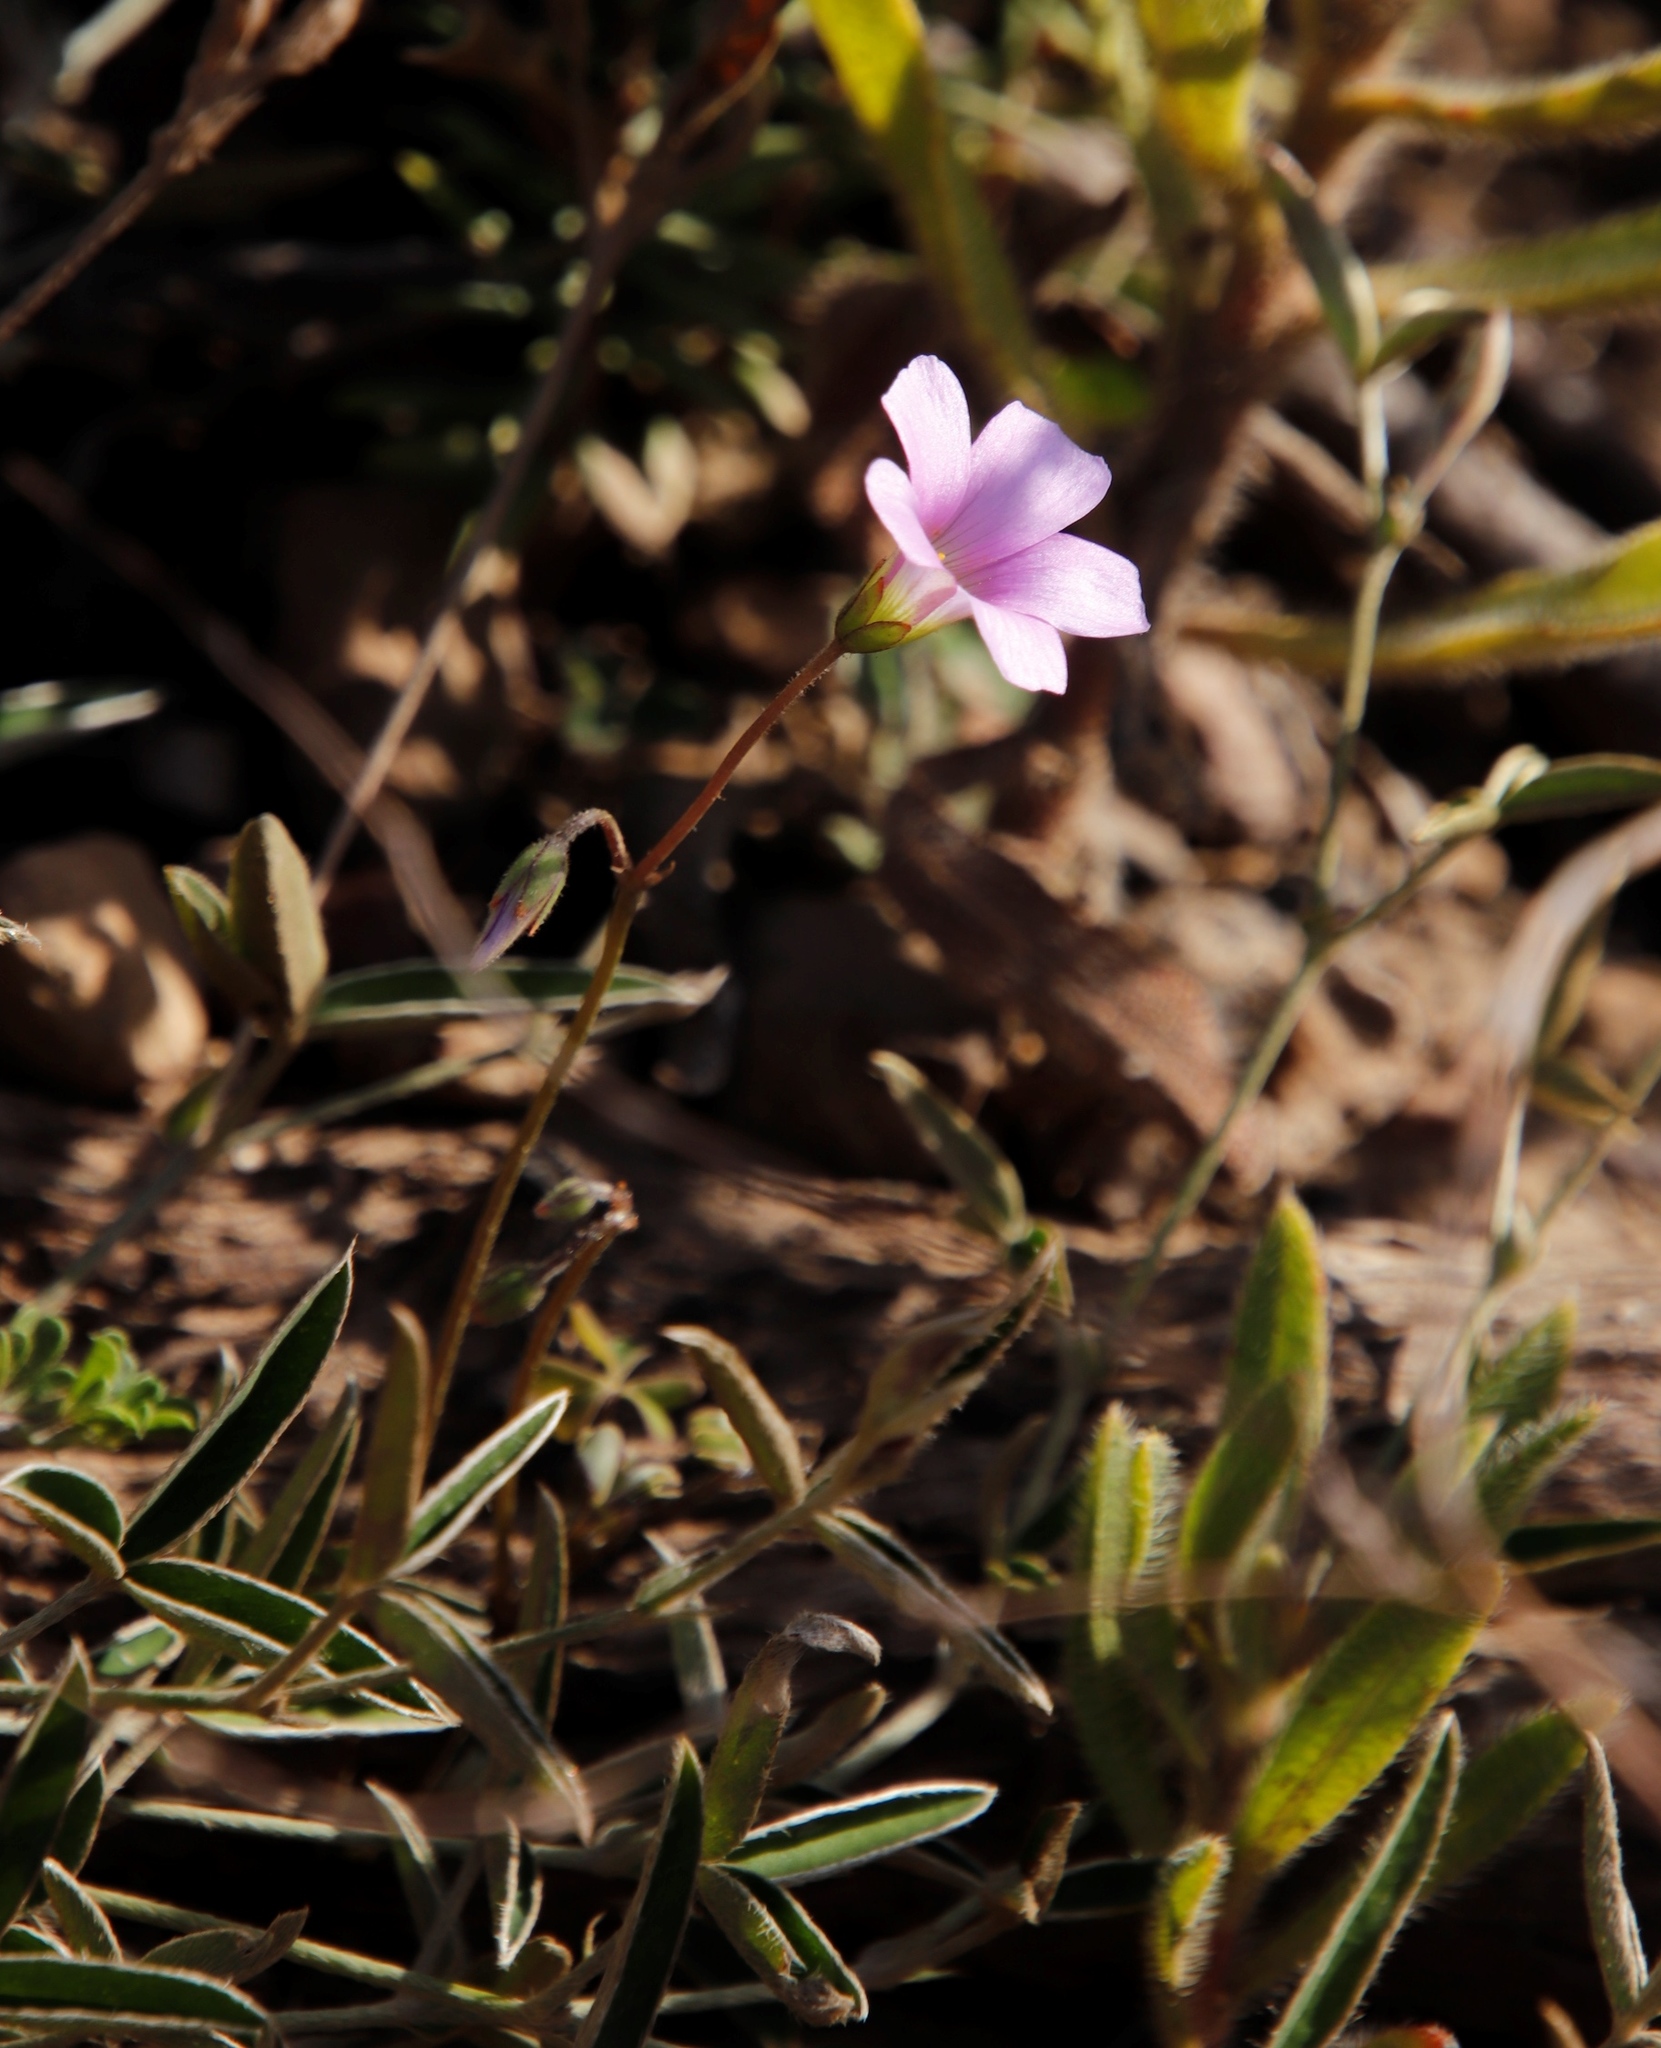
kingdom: Plantae
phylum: Tracheophyta
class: Magnoliopsida
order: Oxalidales
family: Oxalidaceae
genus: Oxalis
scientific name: Oxalis
